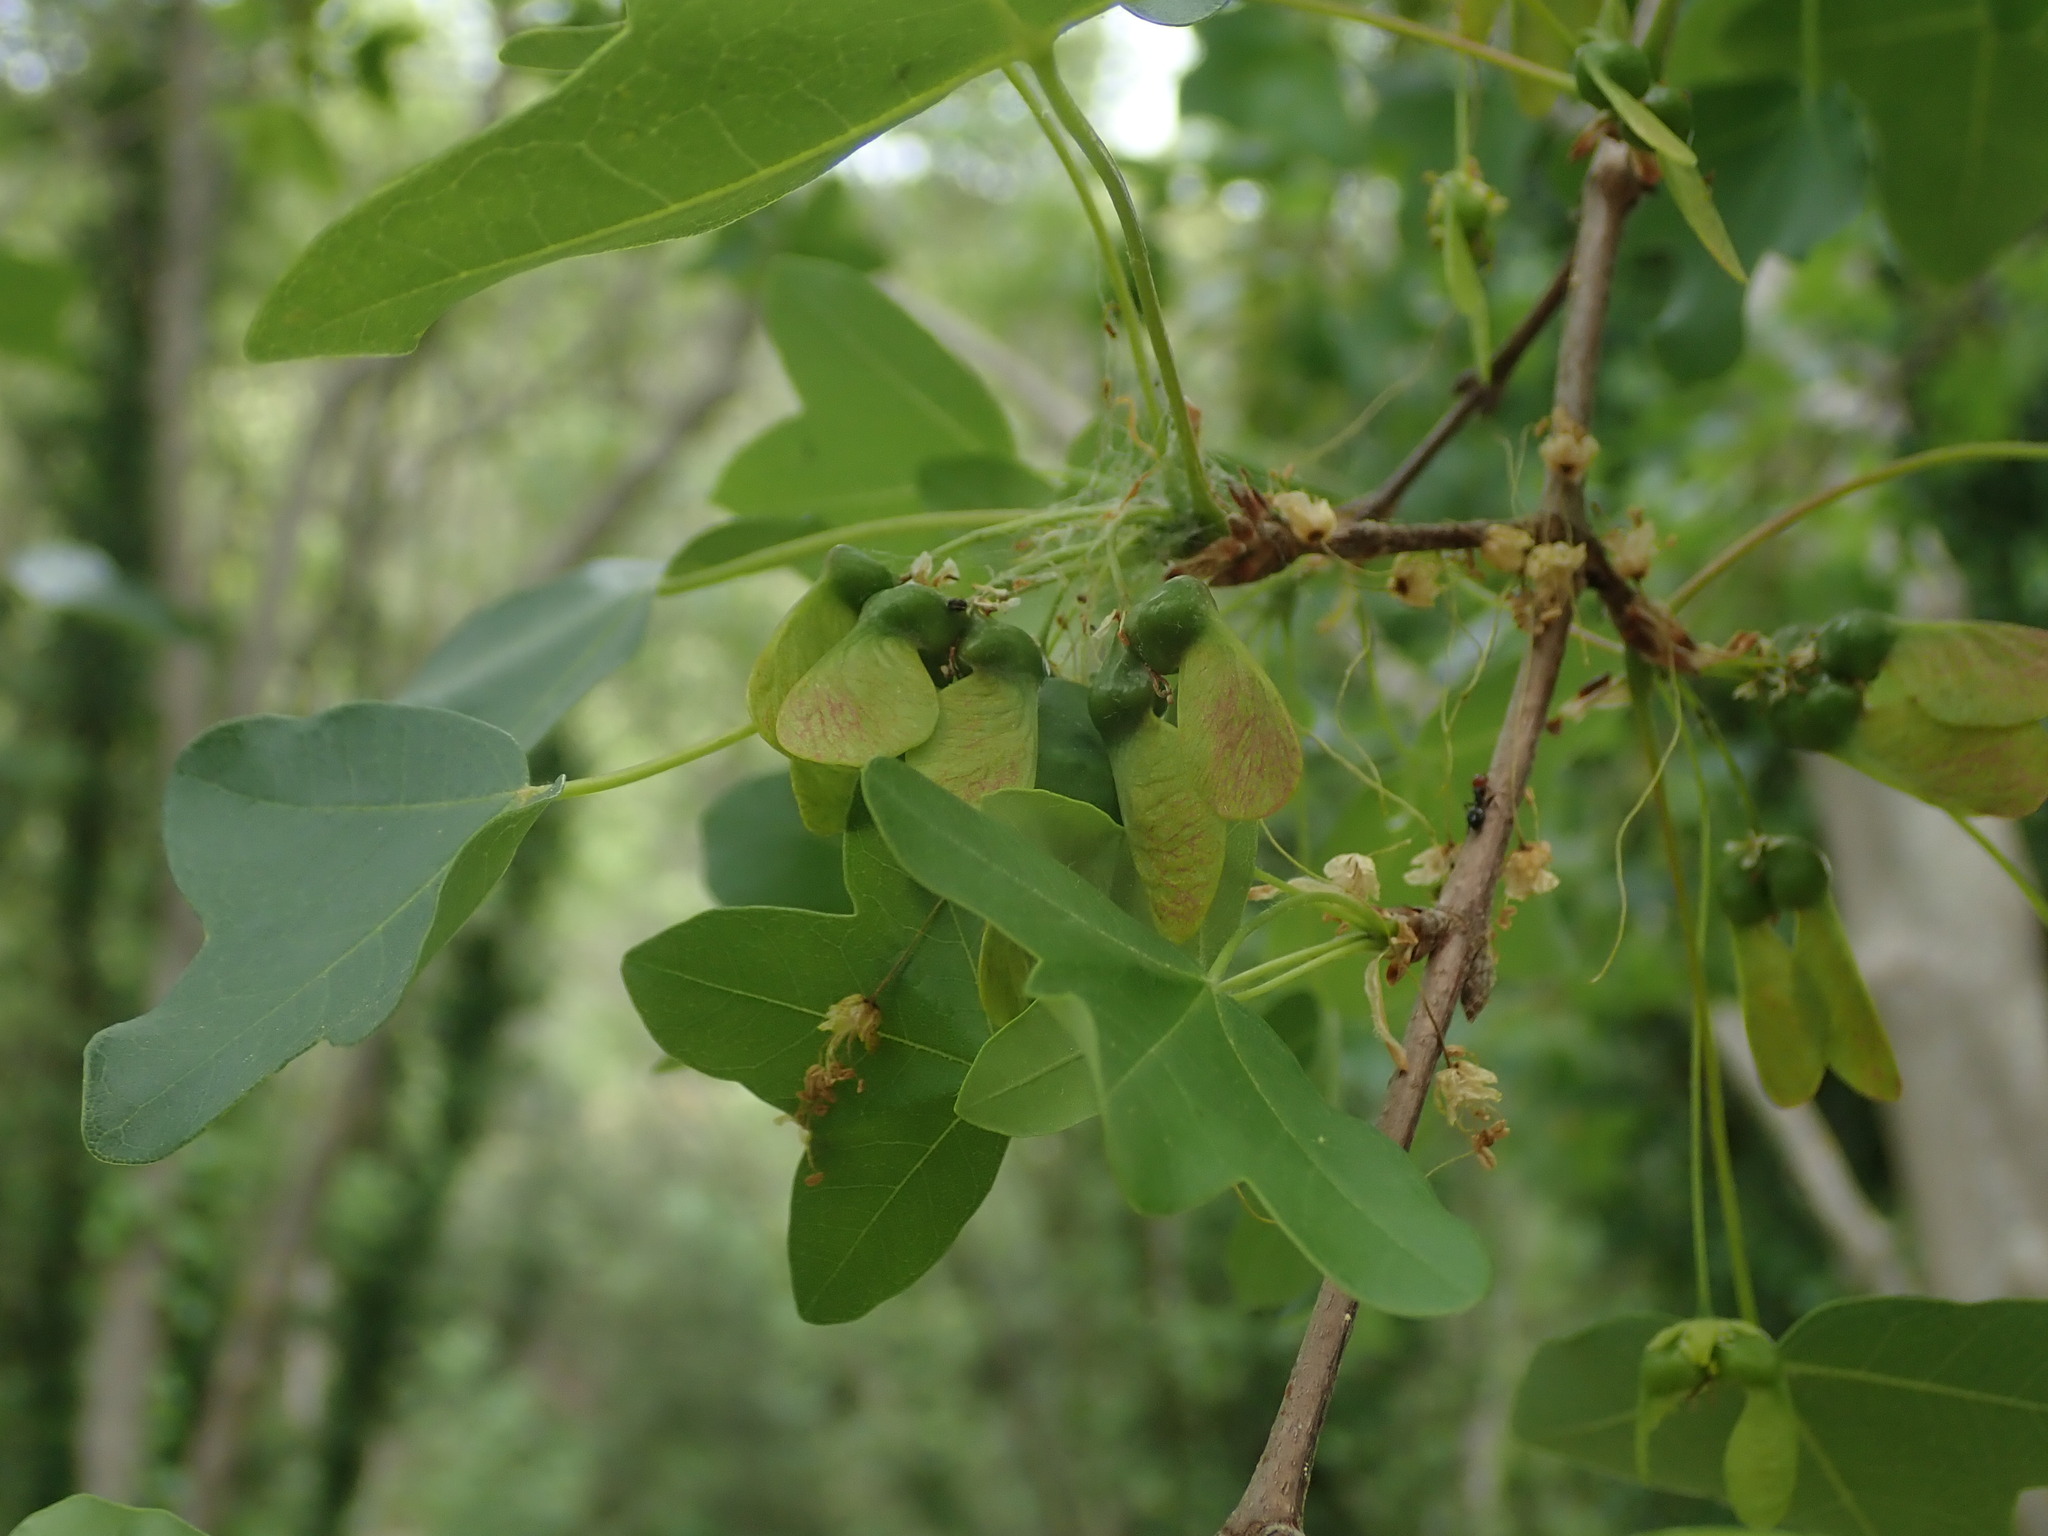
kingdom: Plantae
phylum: Tracheophyta
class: Magnoliopsida
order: Sapindales
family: Sapindaceae
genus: Acer
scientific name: Acer monspessulanum
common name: Montpellier maple
